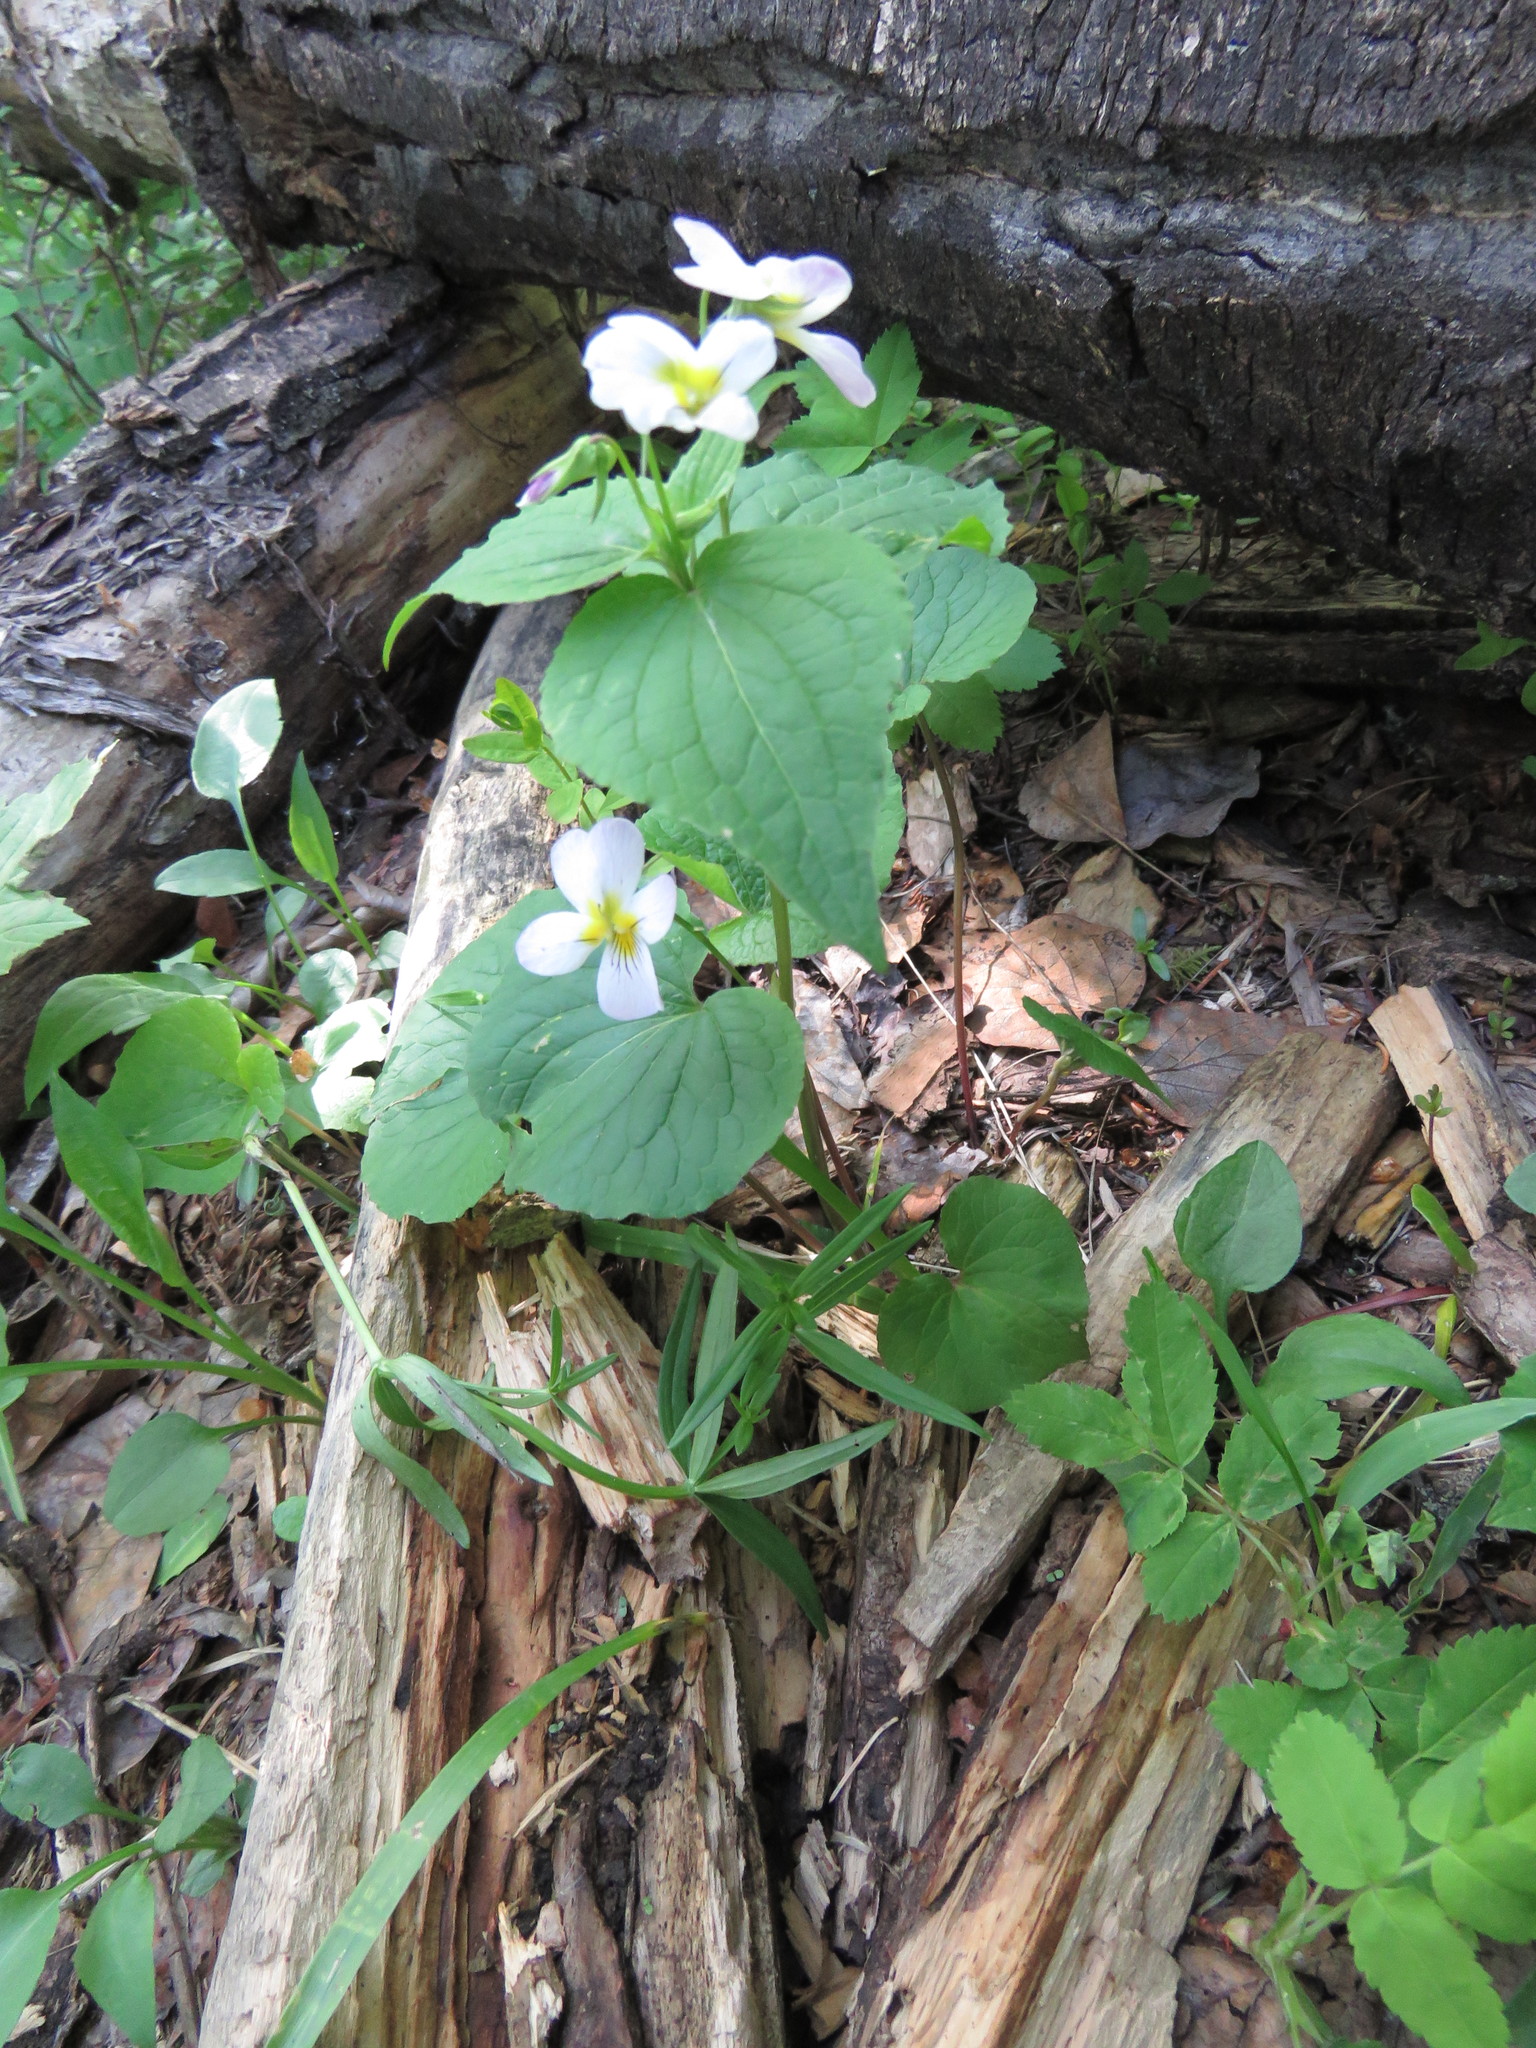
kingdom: Plantae
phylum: Tracheophyta
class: Magnoliopsida
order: Malpighiales
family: Violaceae
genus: Viola
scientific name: Viola canadensis
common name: Canada violet
